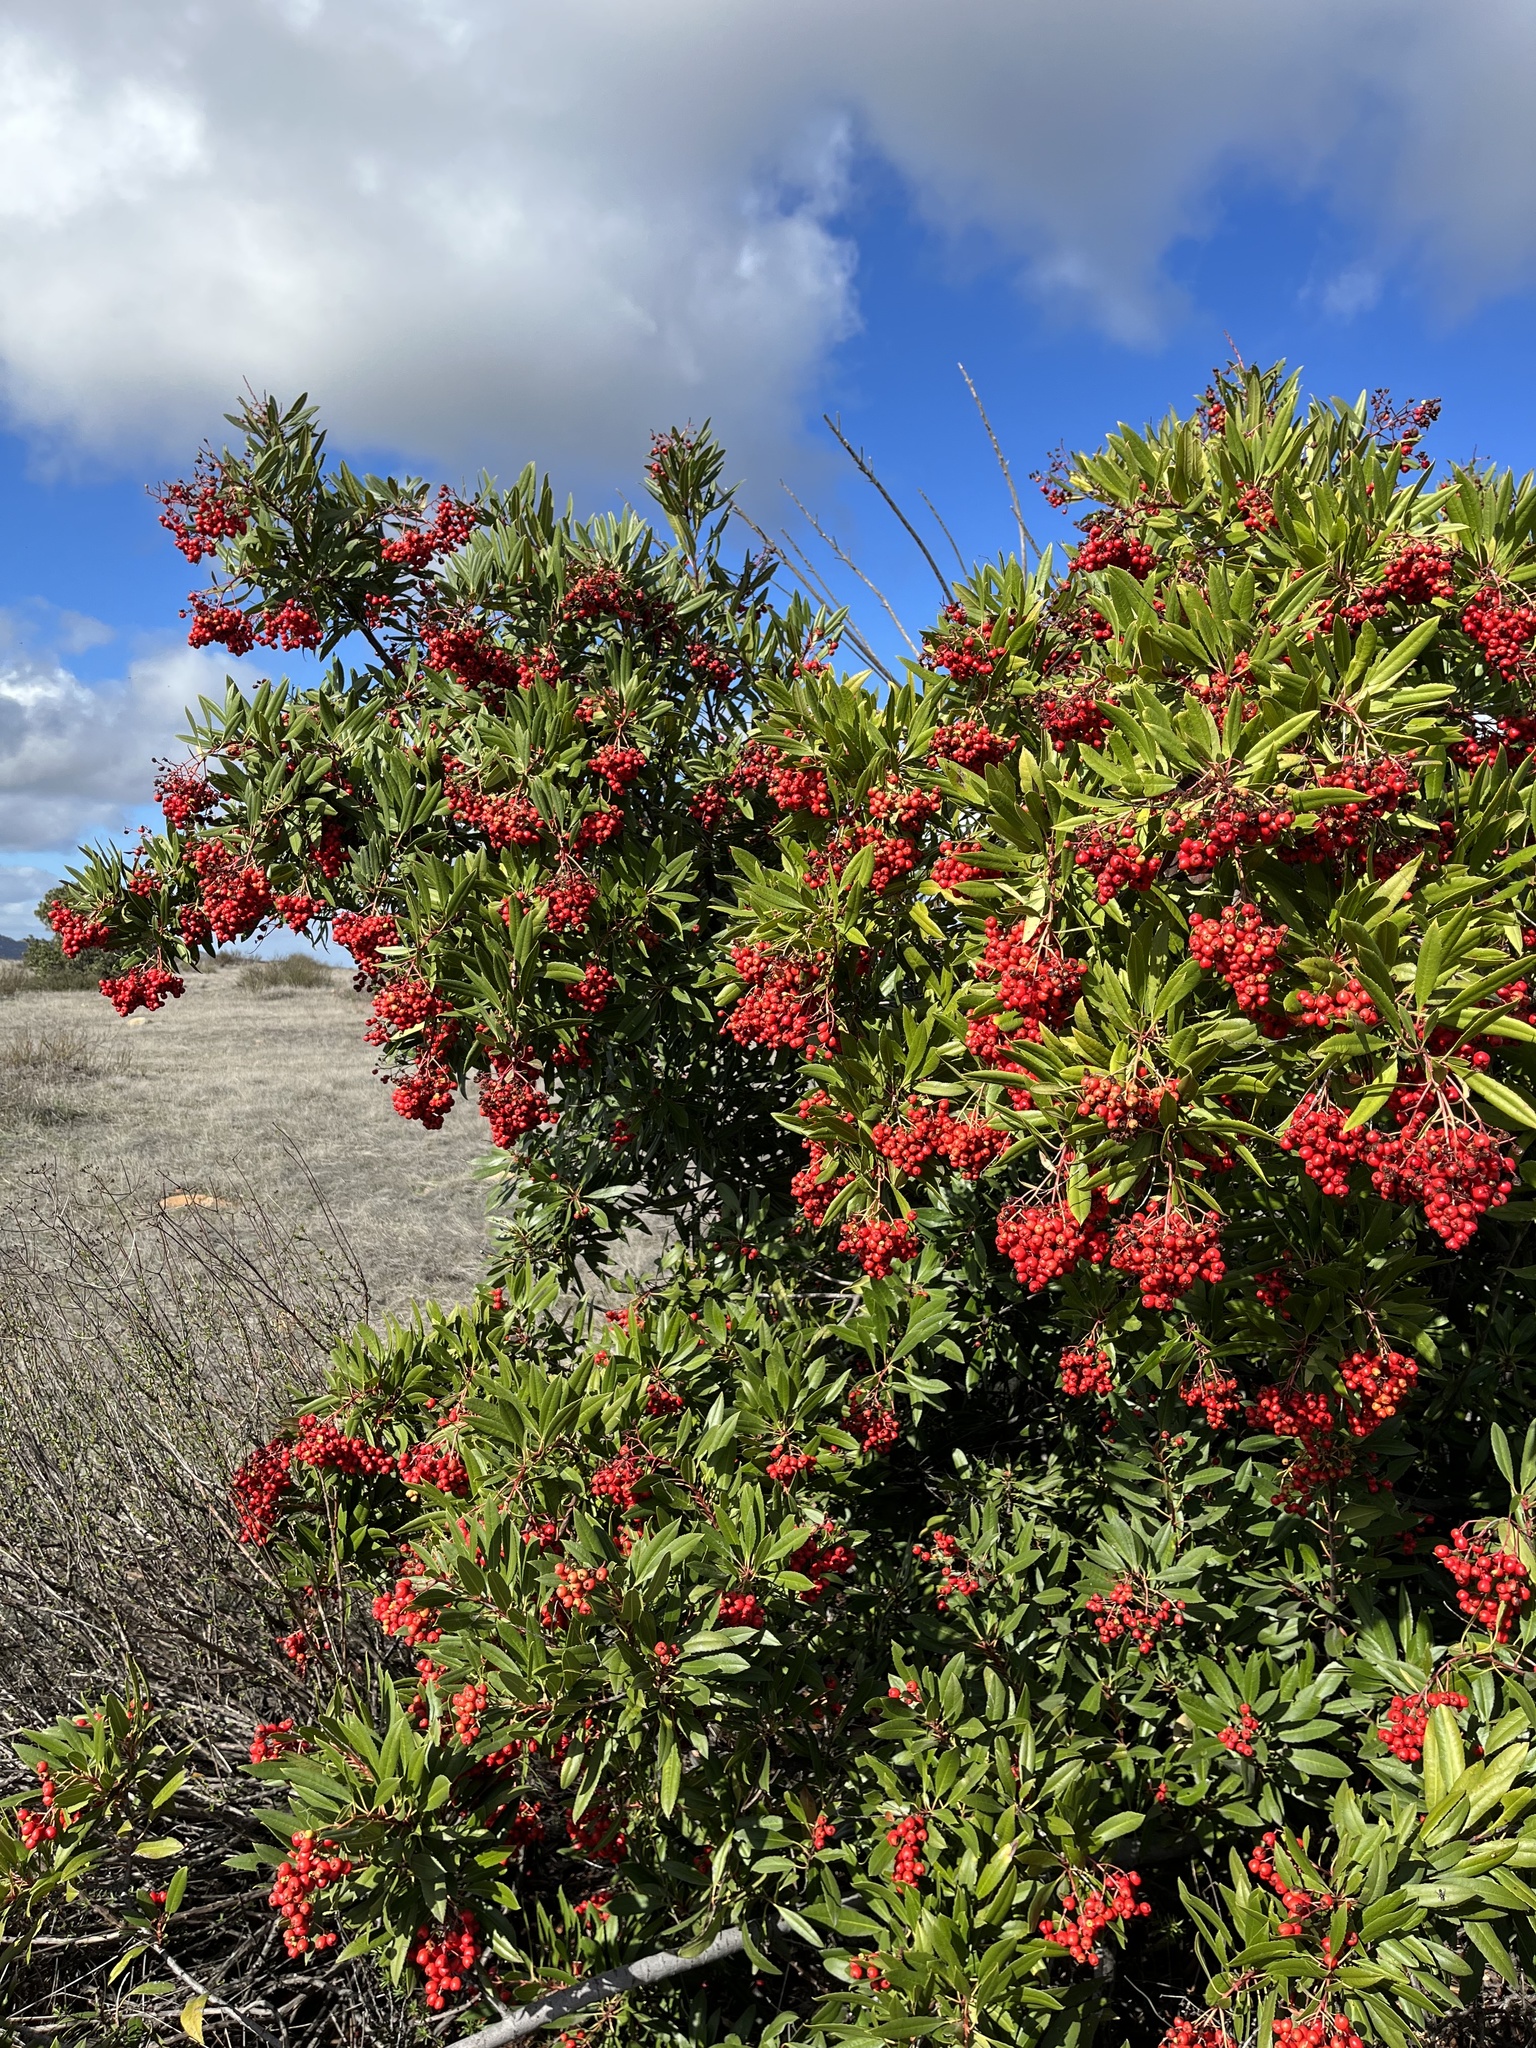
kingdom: Plantae
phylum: Tracheophyta
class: Magnoliopsida
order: Rosales
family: Rosaceae
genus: Heteromeles
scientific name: Heteromeles arbutifolia
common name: California-holly
